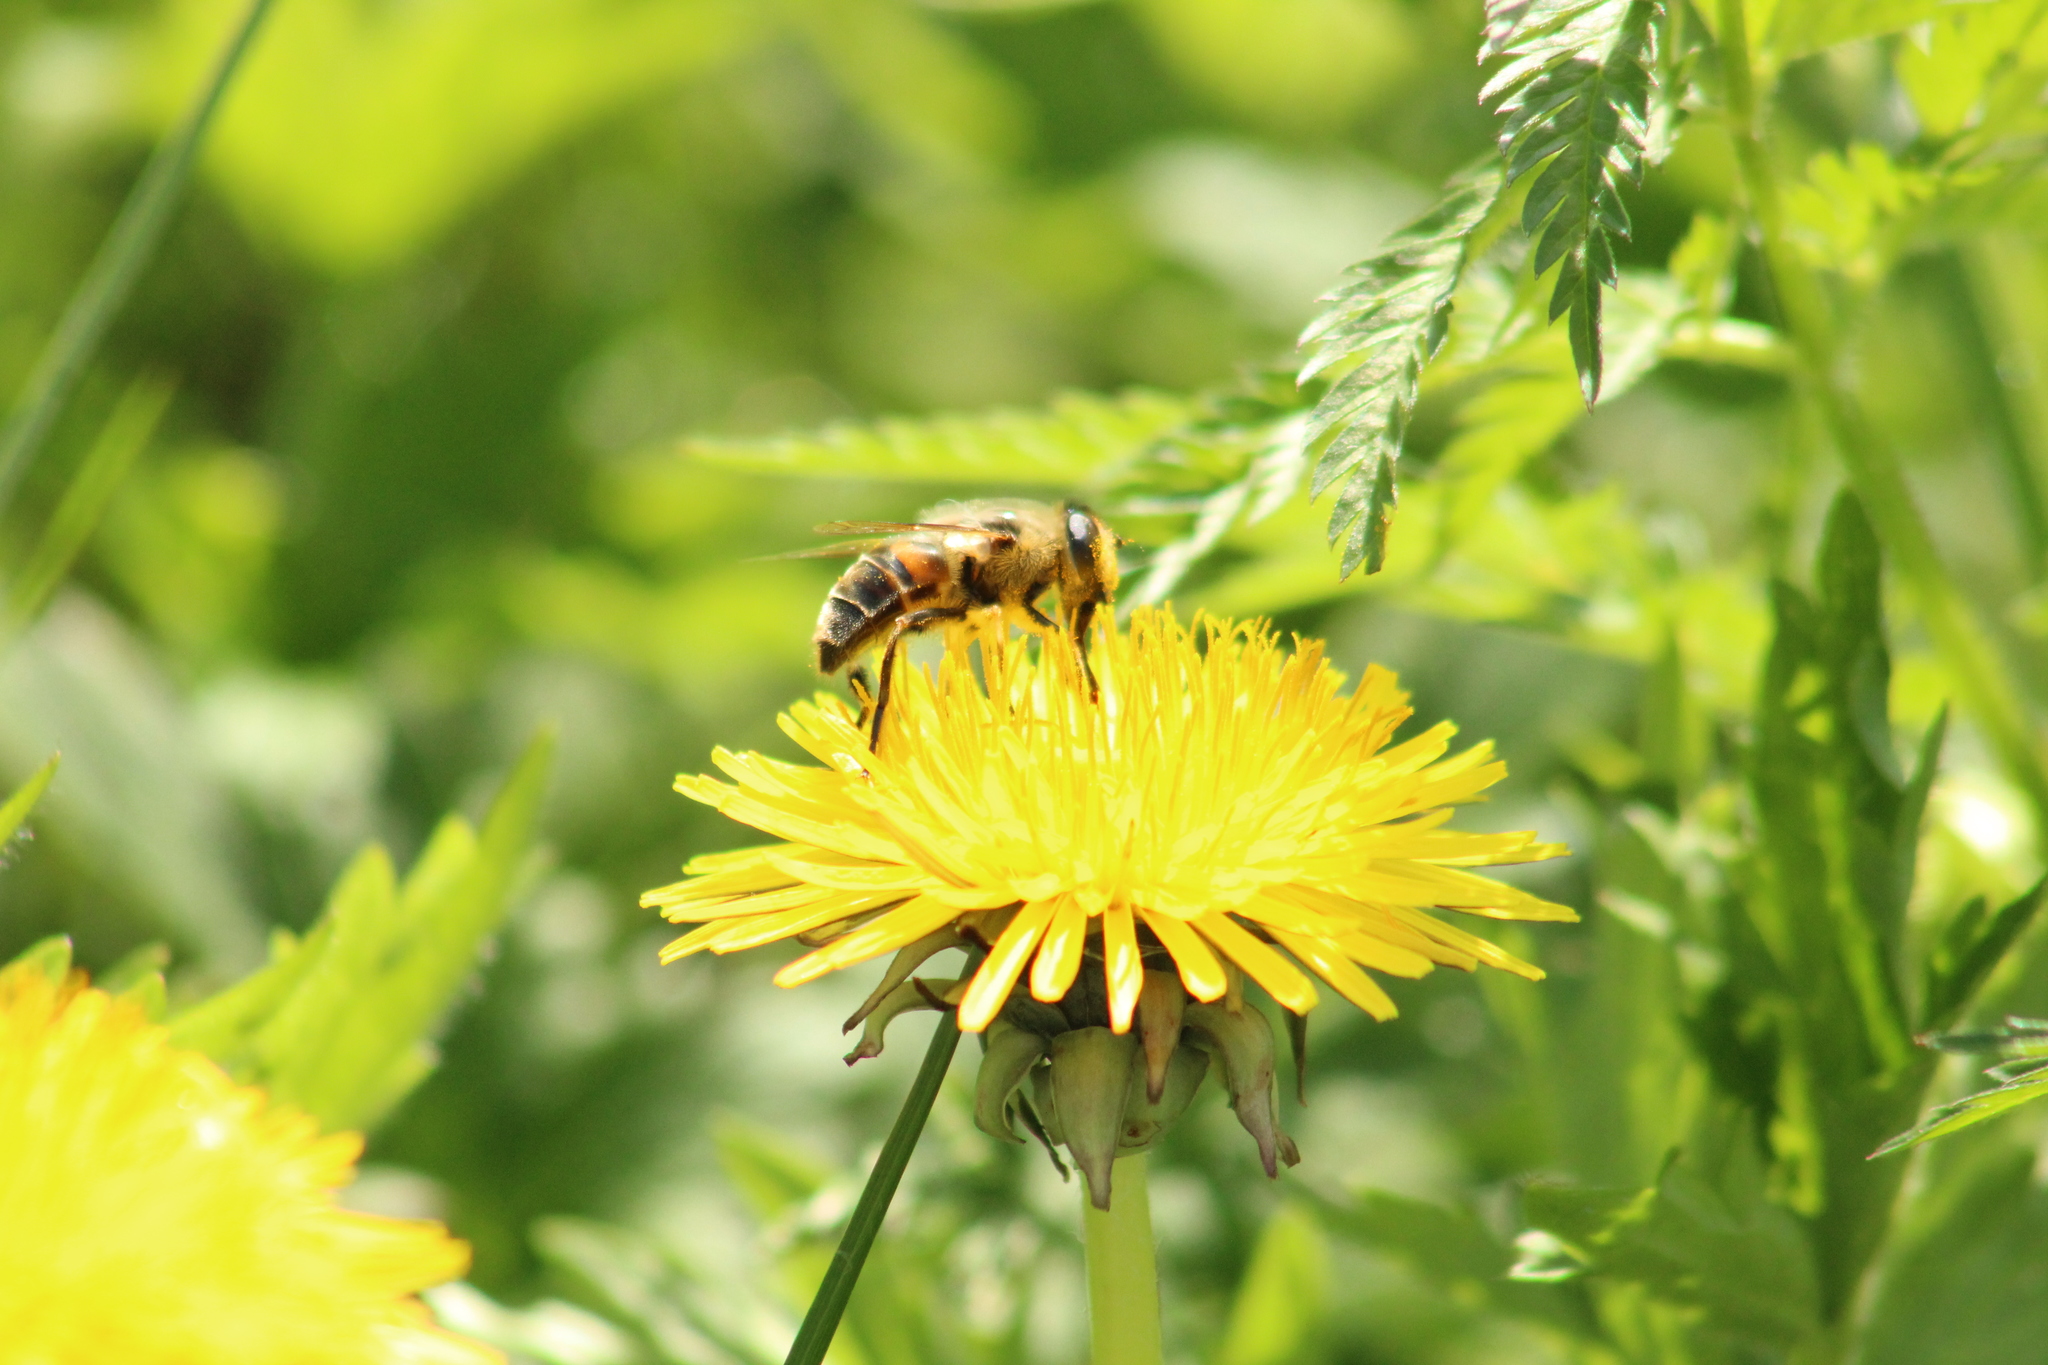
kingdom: Animalia
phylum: Arthropoda
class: Insecta
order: Diptera
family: Syrphidae
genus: Eristalis
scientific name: Eristalis tenax
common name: Drone fly
